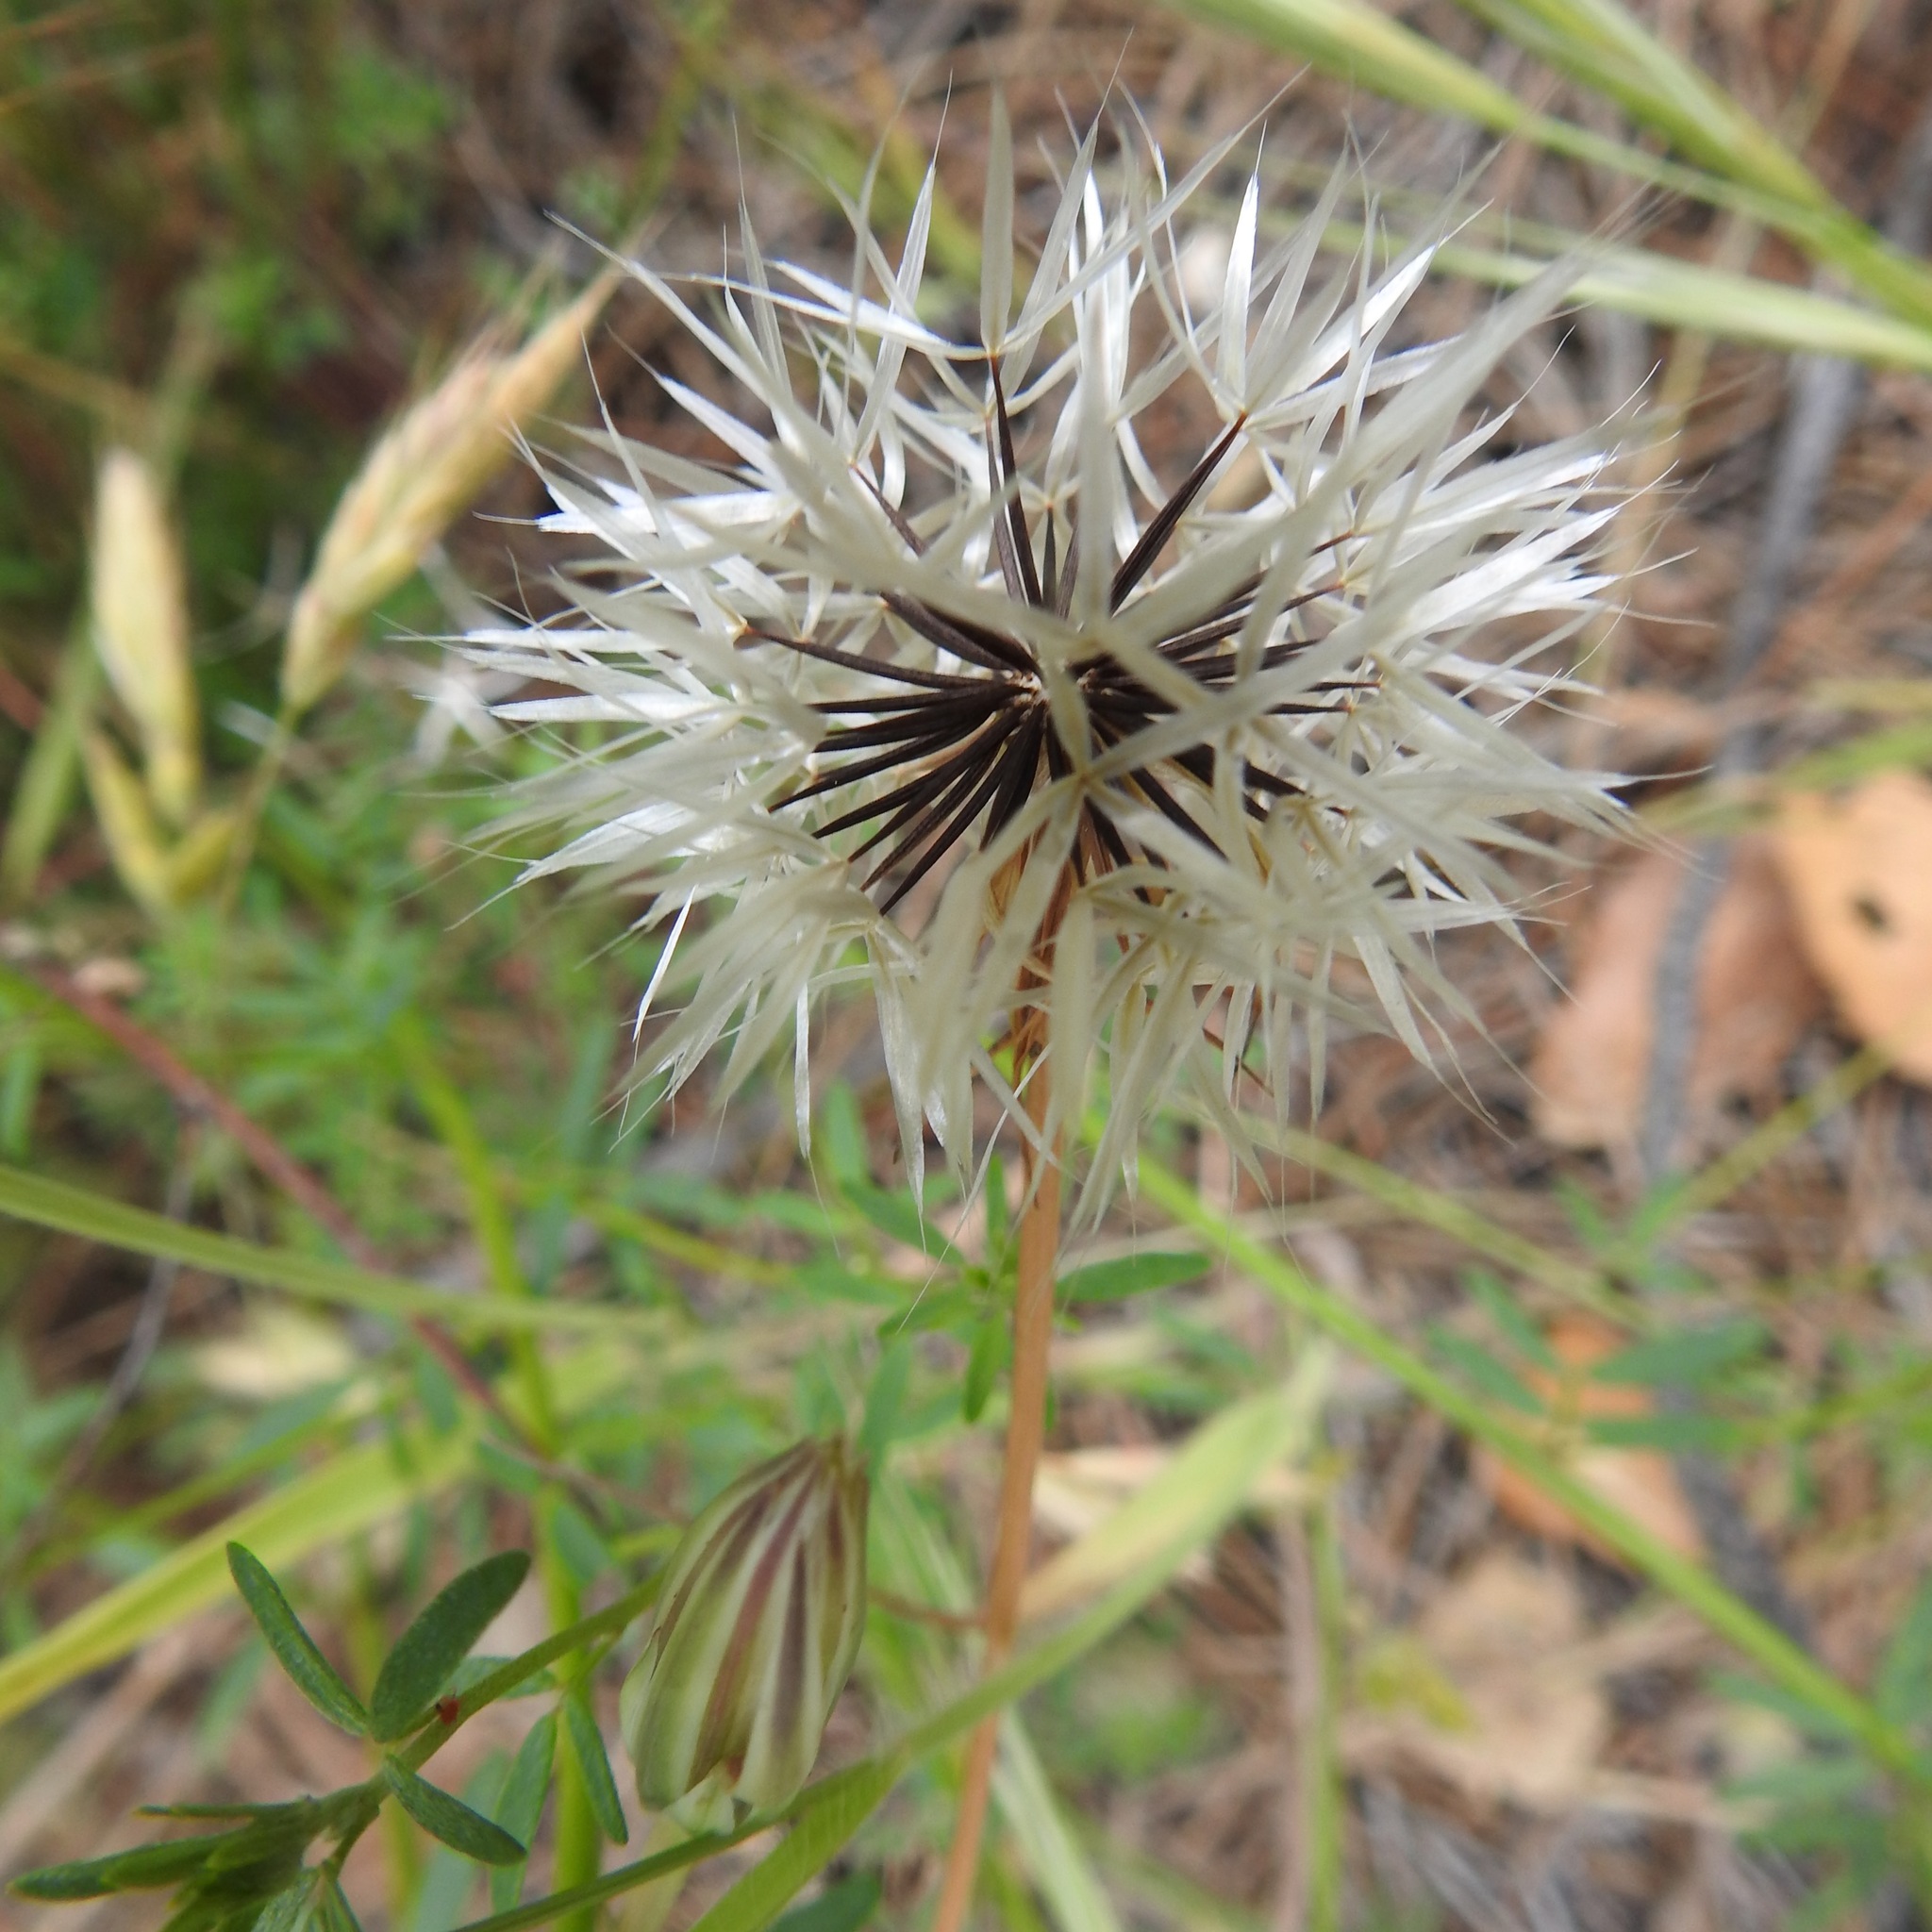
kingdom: Plantae
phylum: Tracheophyta
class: Magnoliopsida
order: Asterales
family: Asteraceae
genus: Microseris
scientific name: Microseris lindleyi
